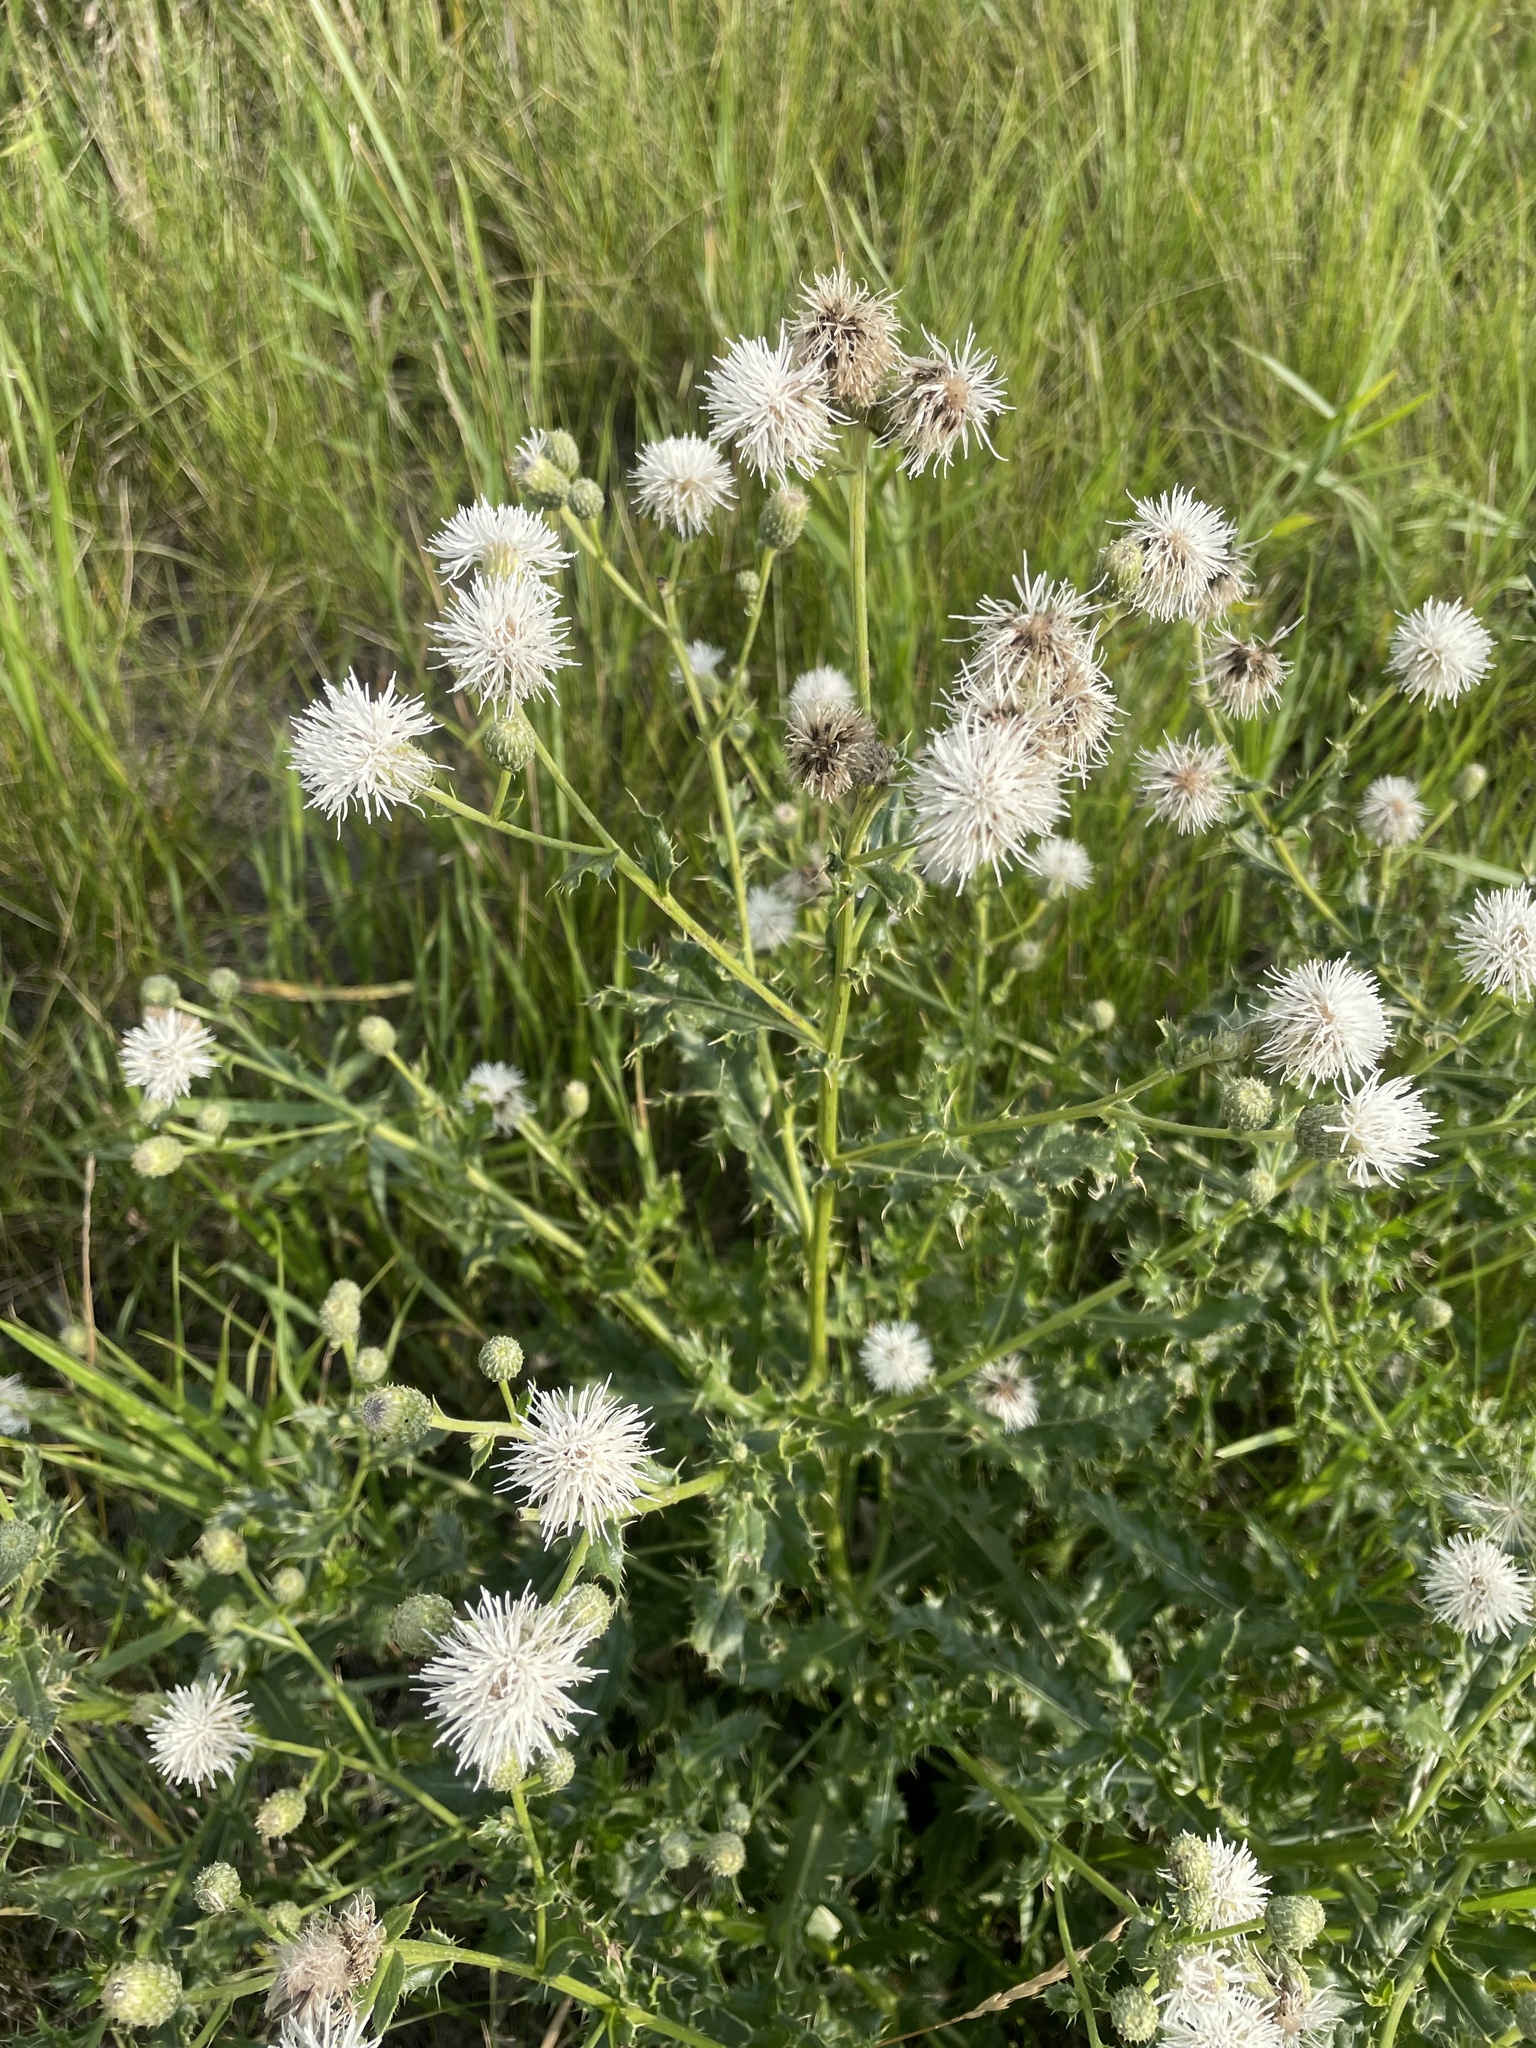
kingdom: Plantae
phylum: Tracheophyta
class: Magnoliopsida
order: Asterales
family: Asteraceae
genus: Cirsium
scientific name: Cirsium arvense
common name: Creeping thistle
